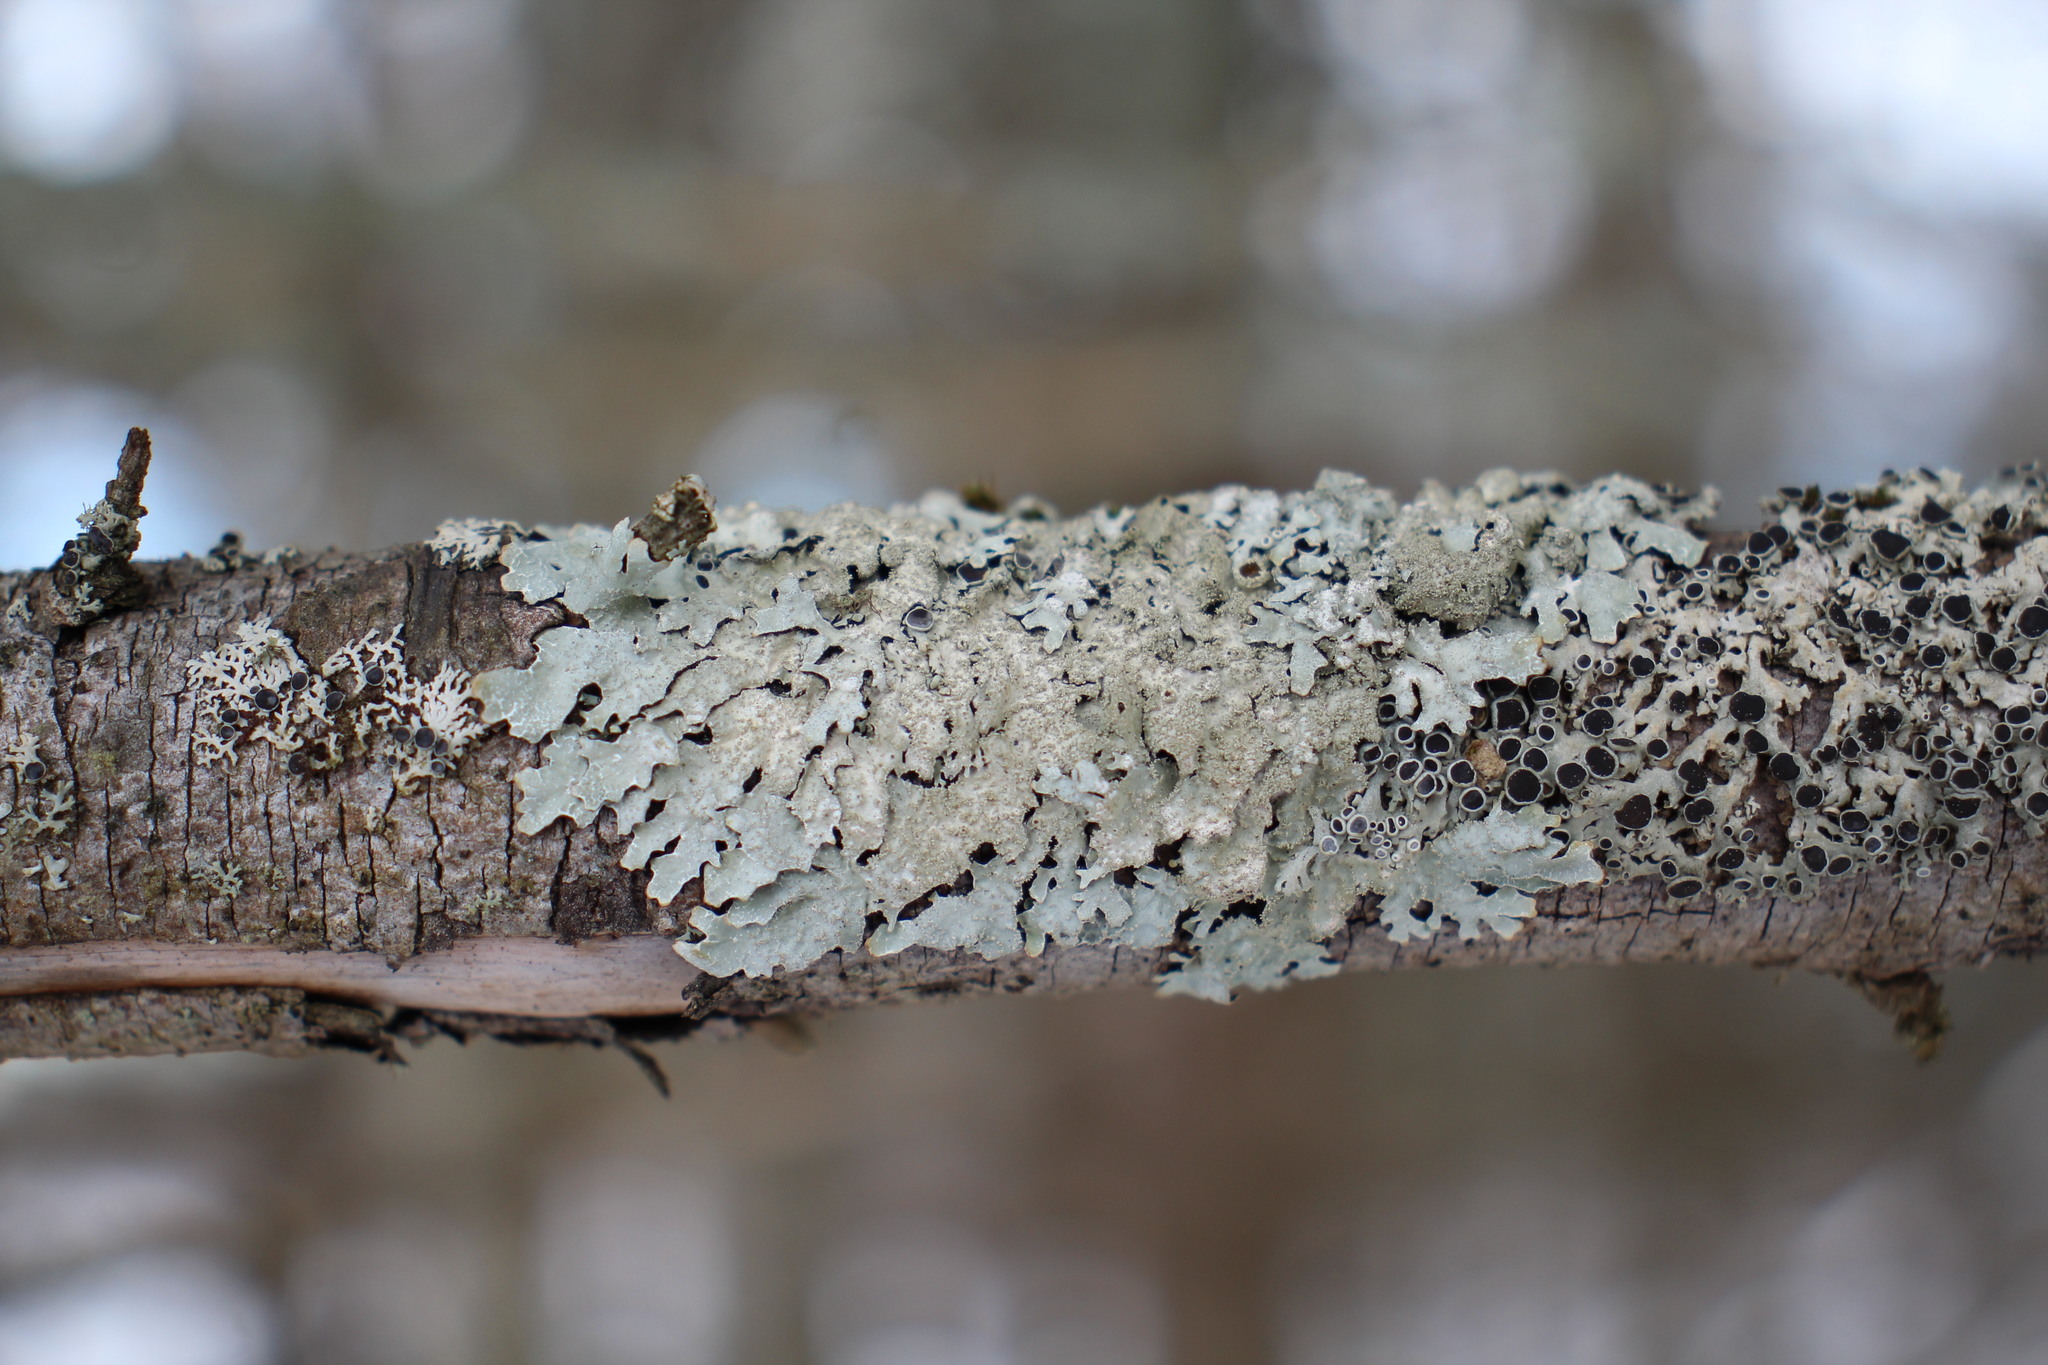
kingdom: Fungi
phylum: Ascomycota
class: Lecanoromycetes
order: Lecanorales
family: Parmeliaceae
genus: Parmelia
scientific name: Parmelia squarrosa
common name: Bottle brush shield lichen
